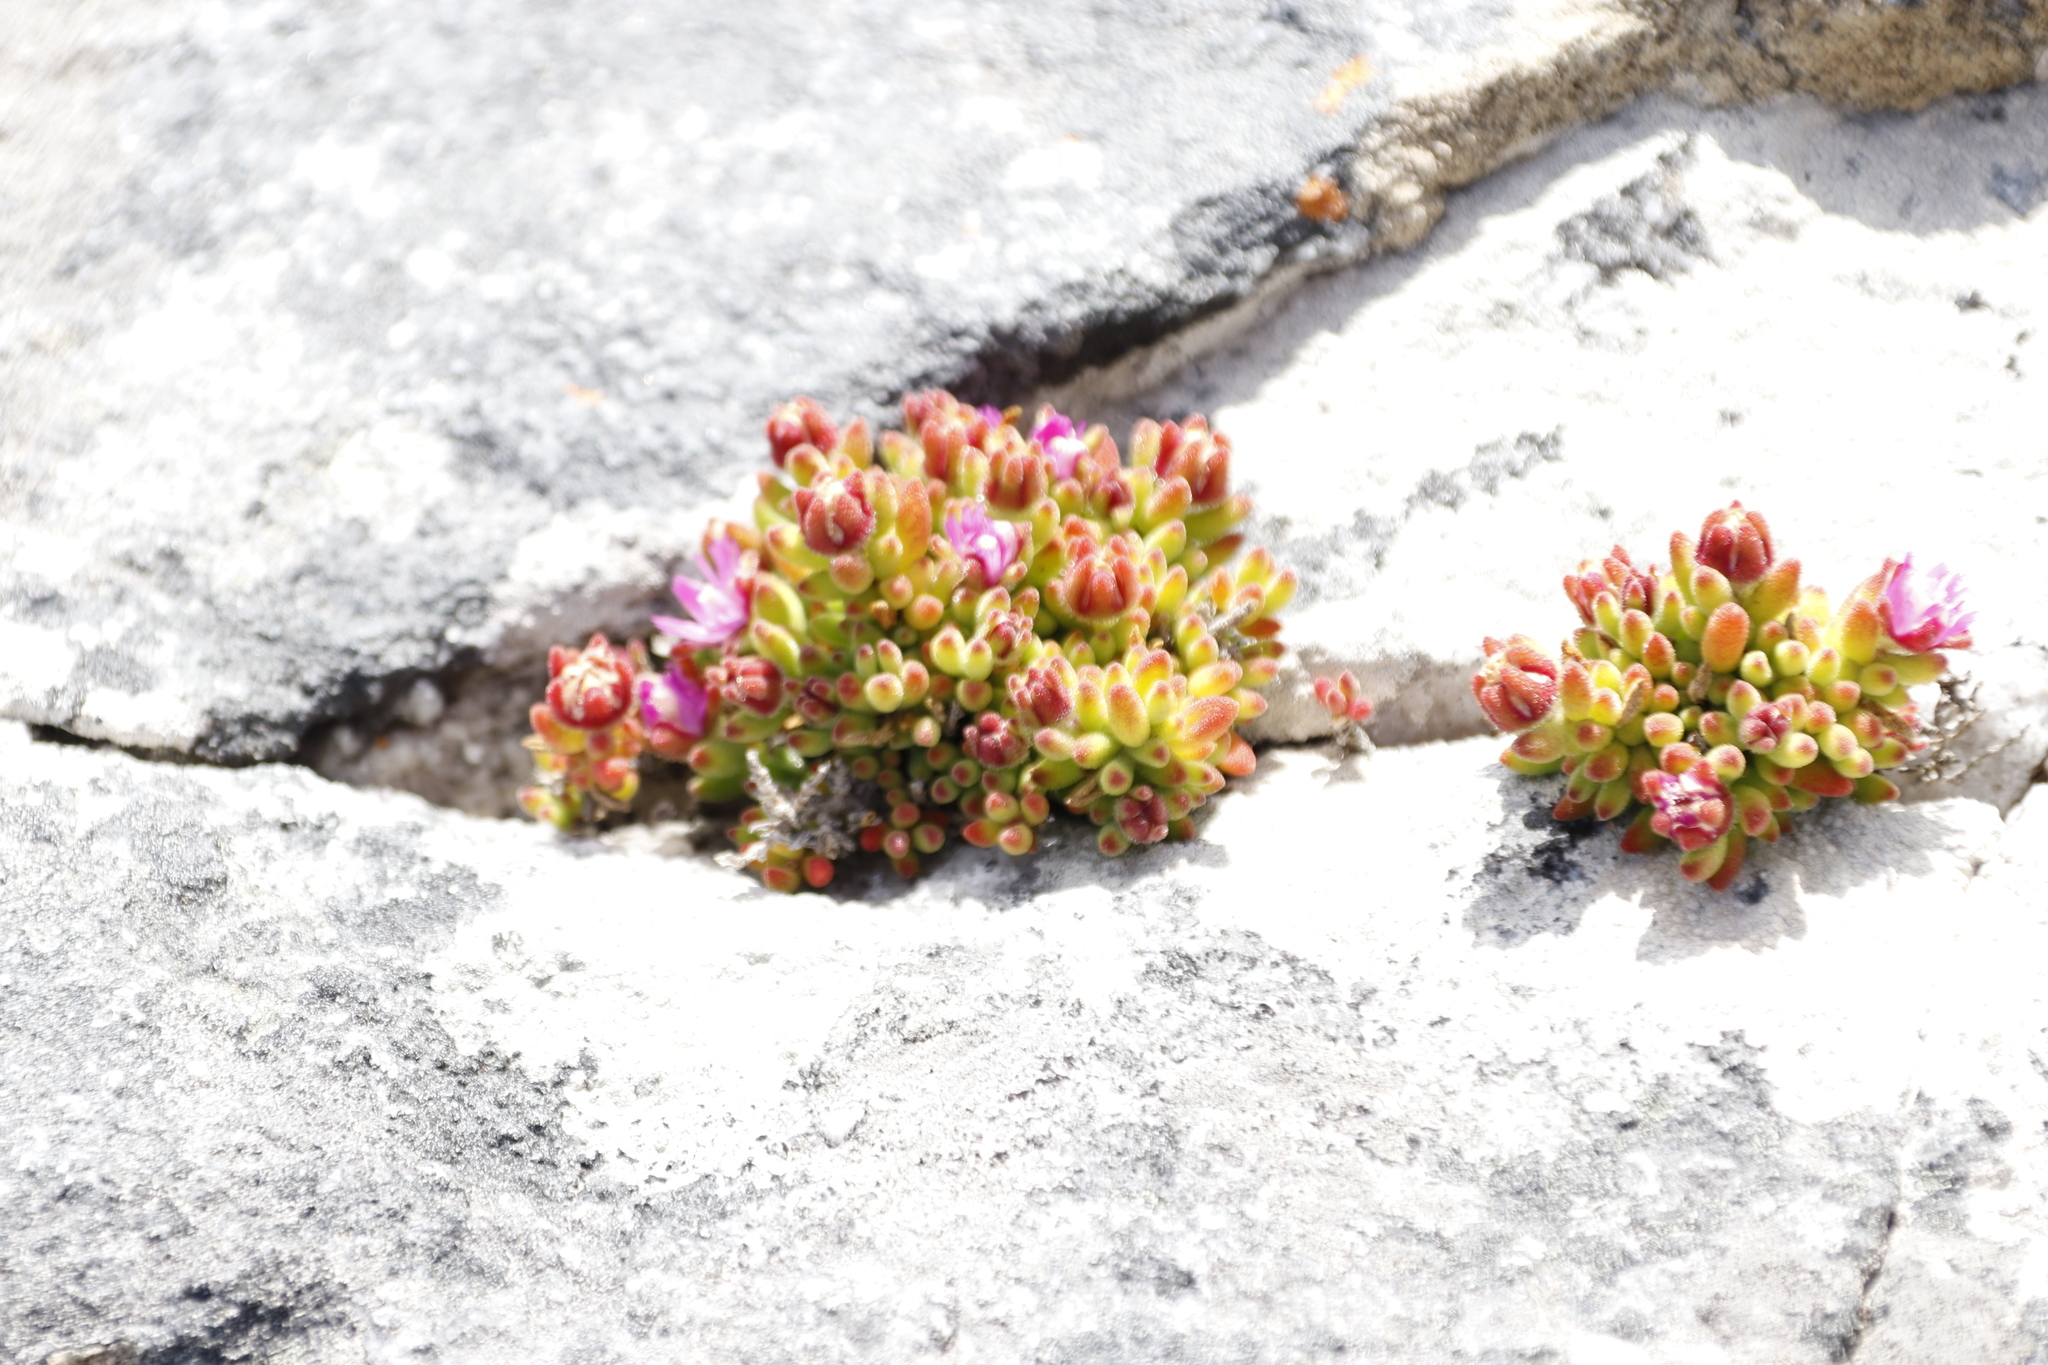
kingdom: Plantae
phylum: Tracheophyta
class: Magnoliopsida
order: Caryophyllales
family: Aizoaceae
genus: Drosanthemum
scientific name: Drosanthemum stokoei
